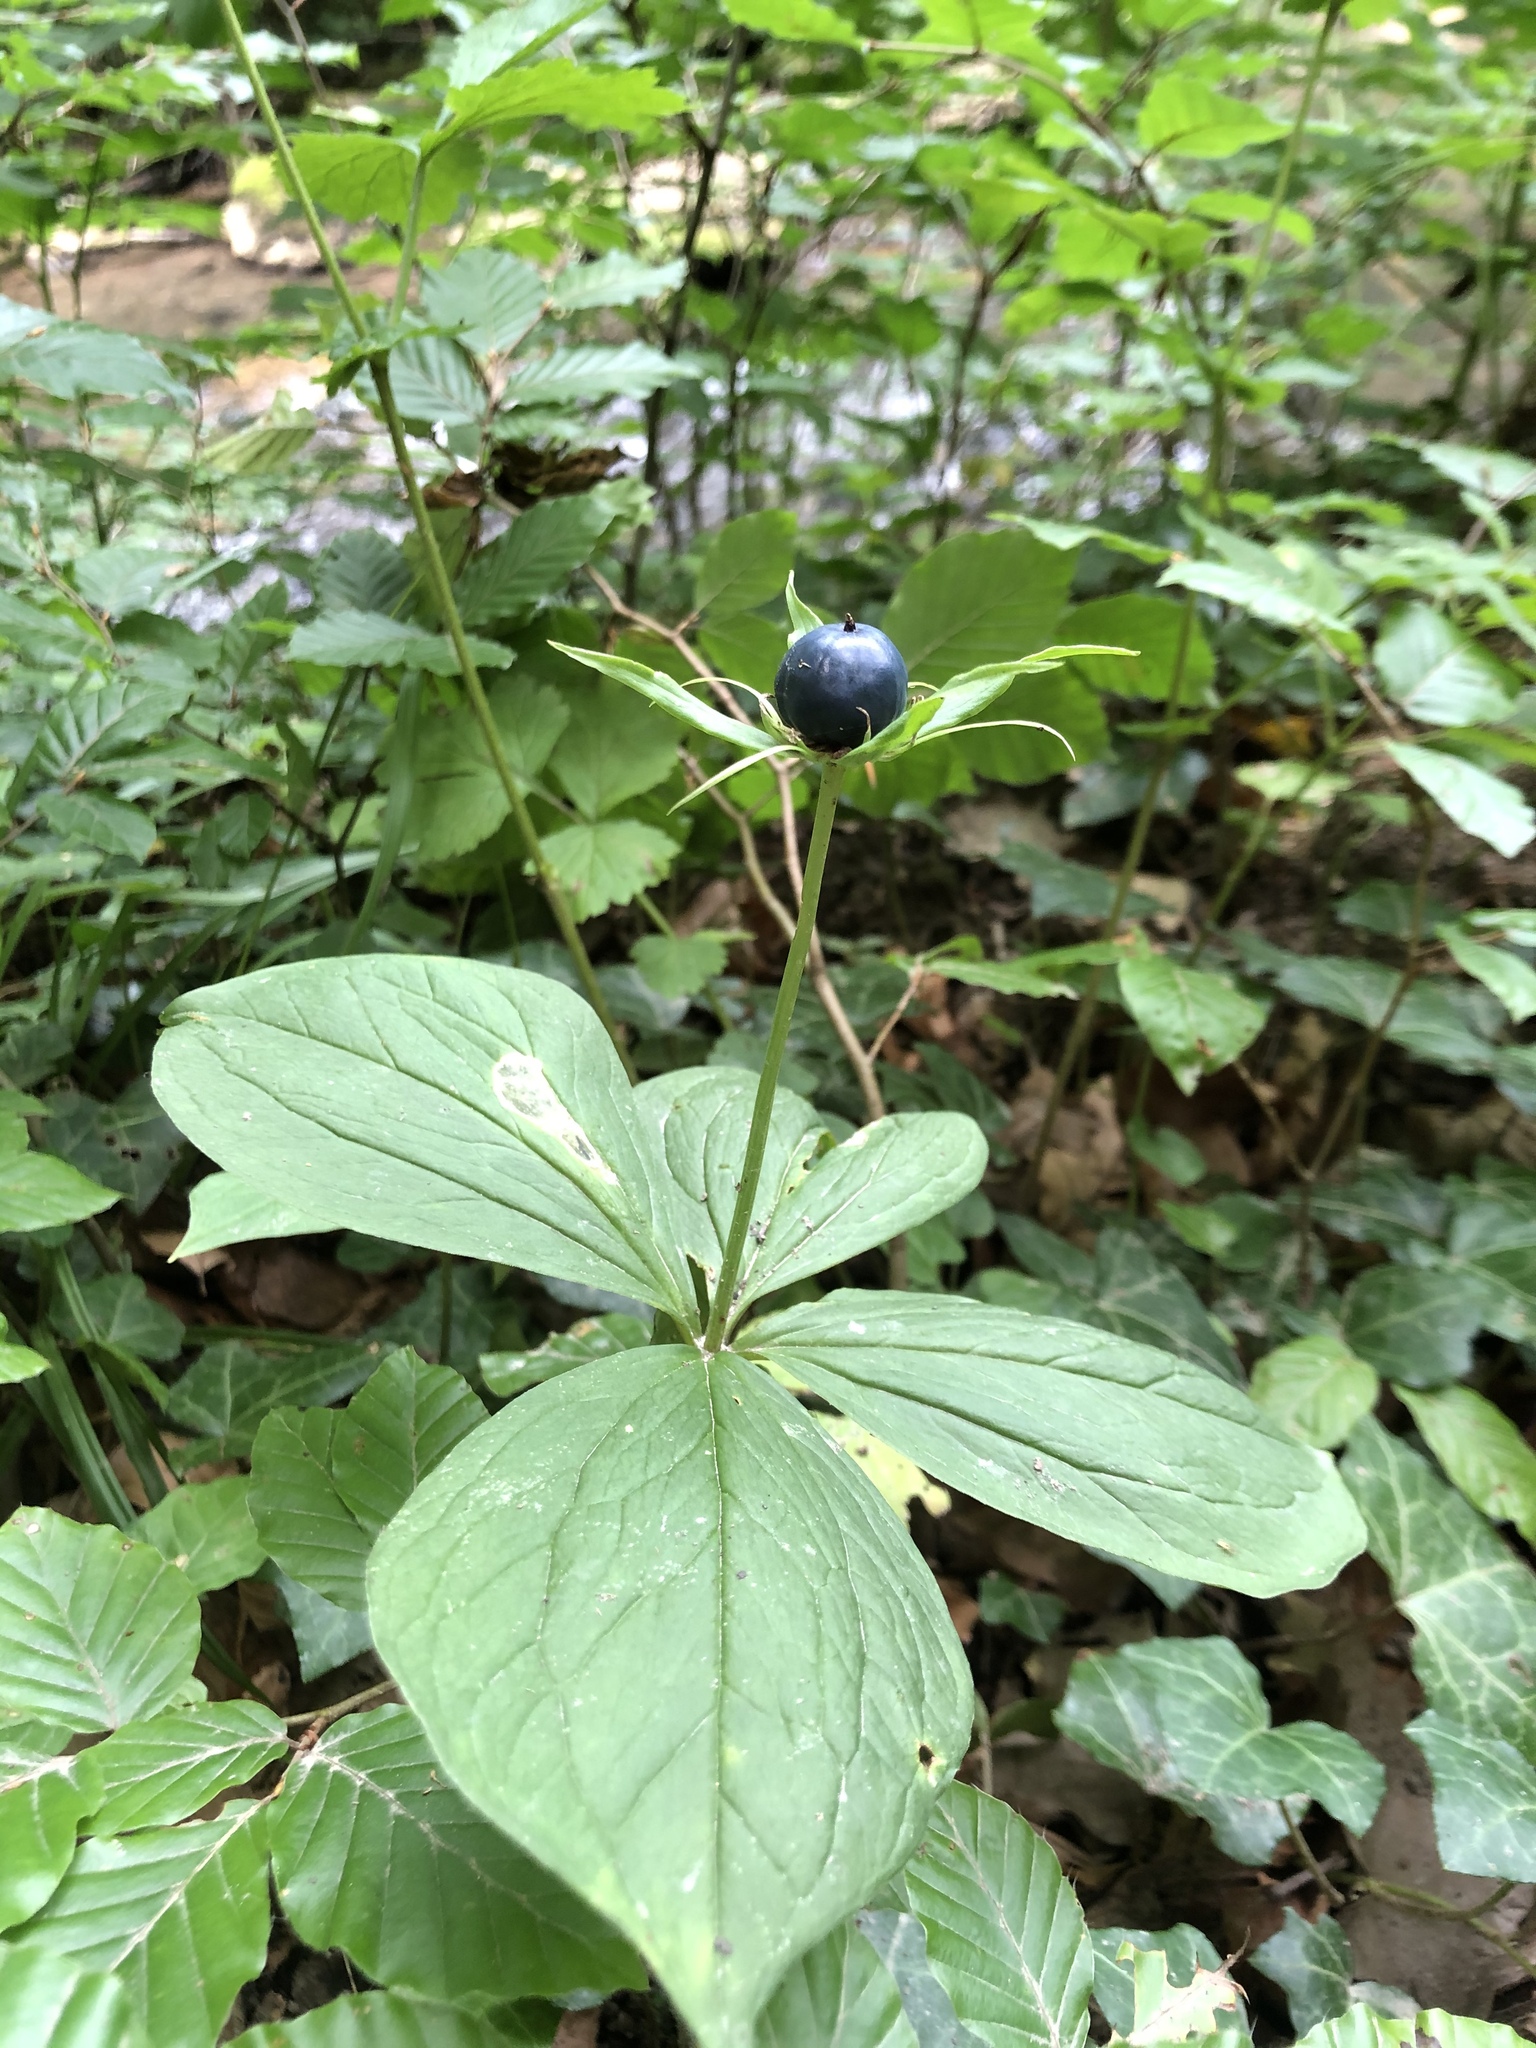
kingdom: Plantae
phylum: Tracheophyta
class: Liliopsida
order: Liliales
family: Melanthiaceae
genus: Paris
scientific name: Paris quadrifolia
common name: Herb-paris
